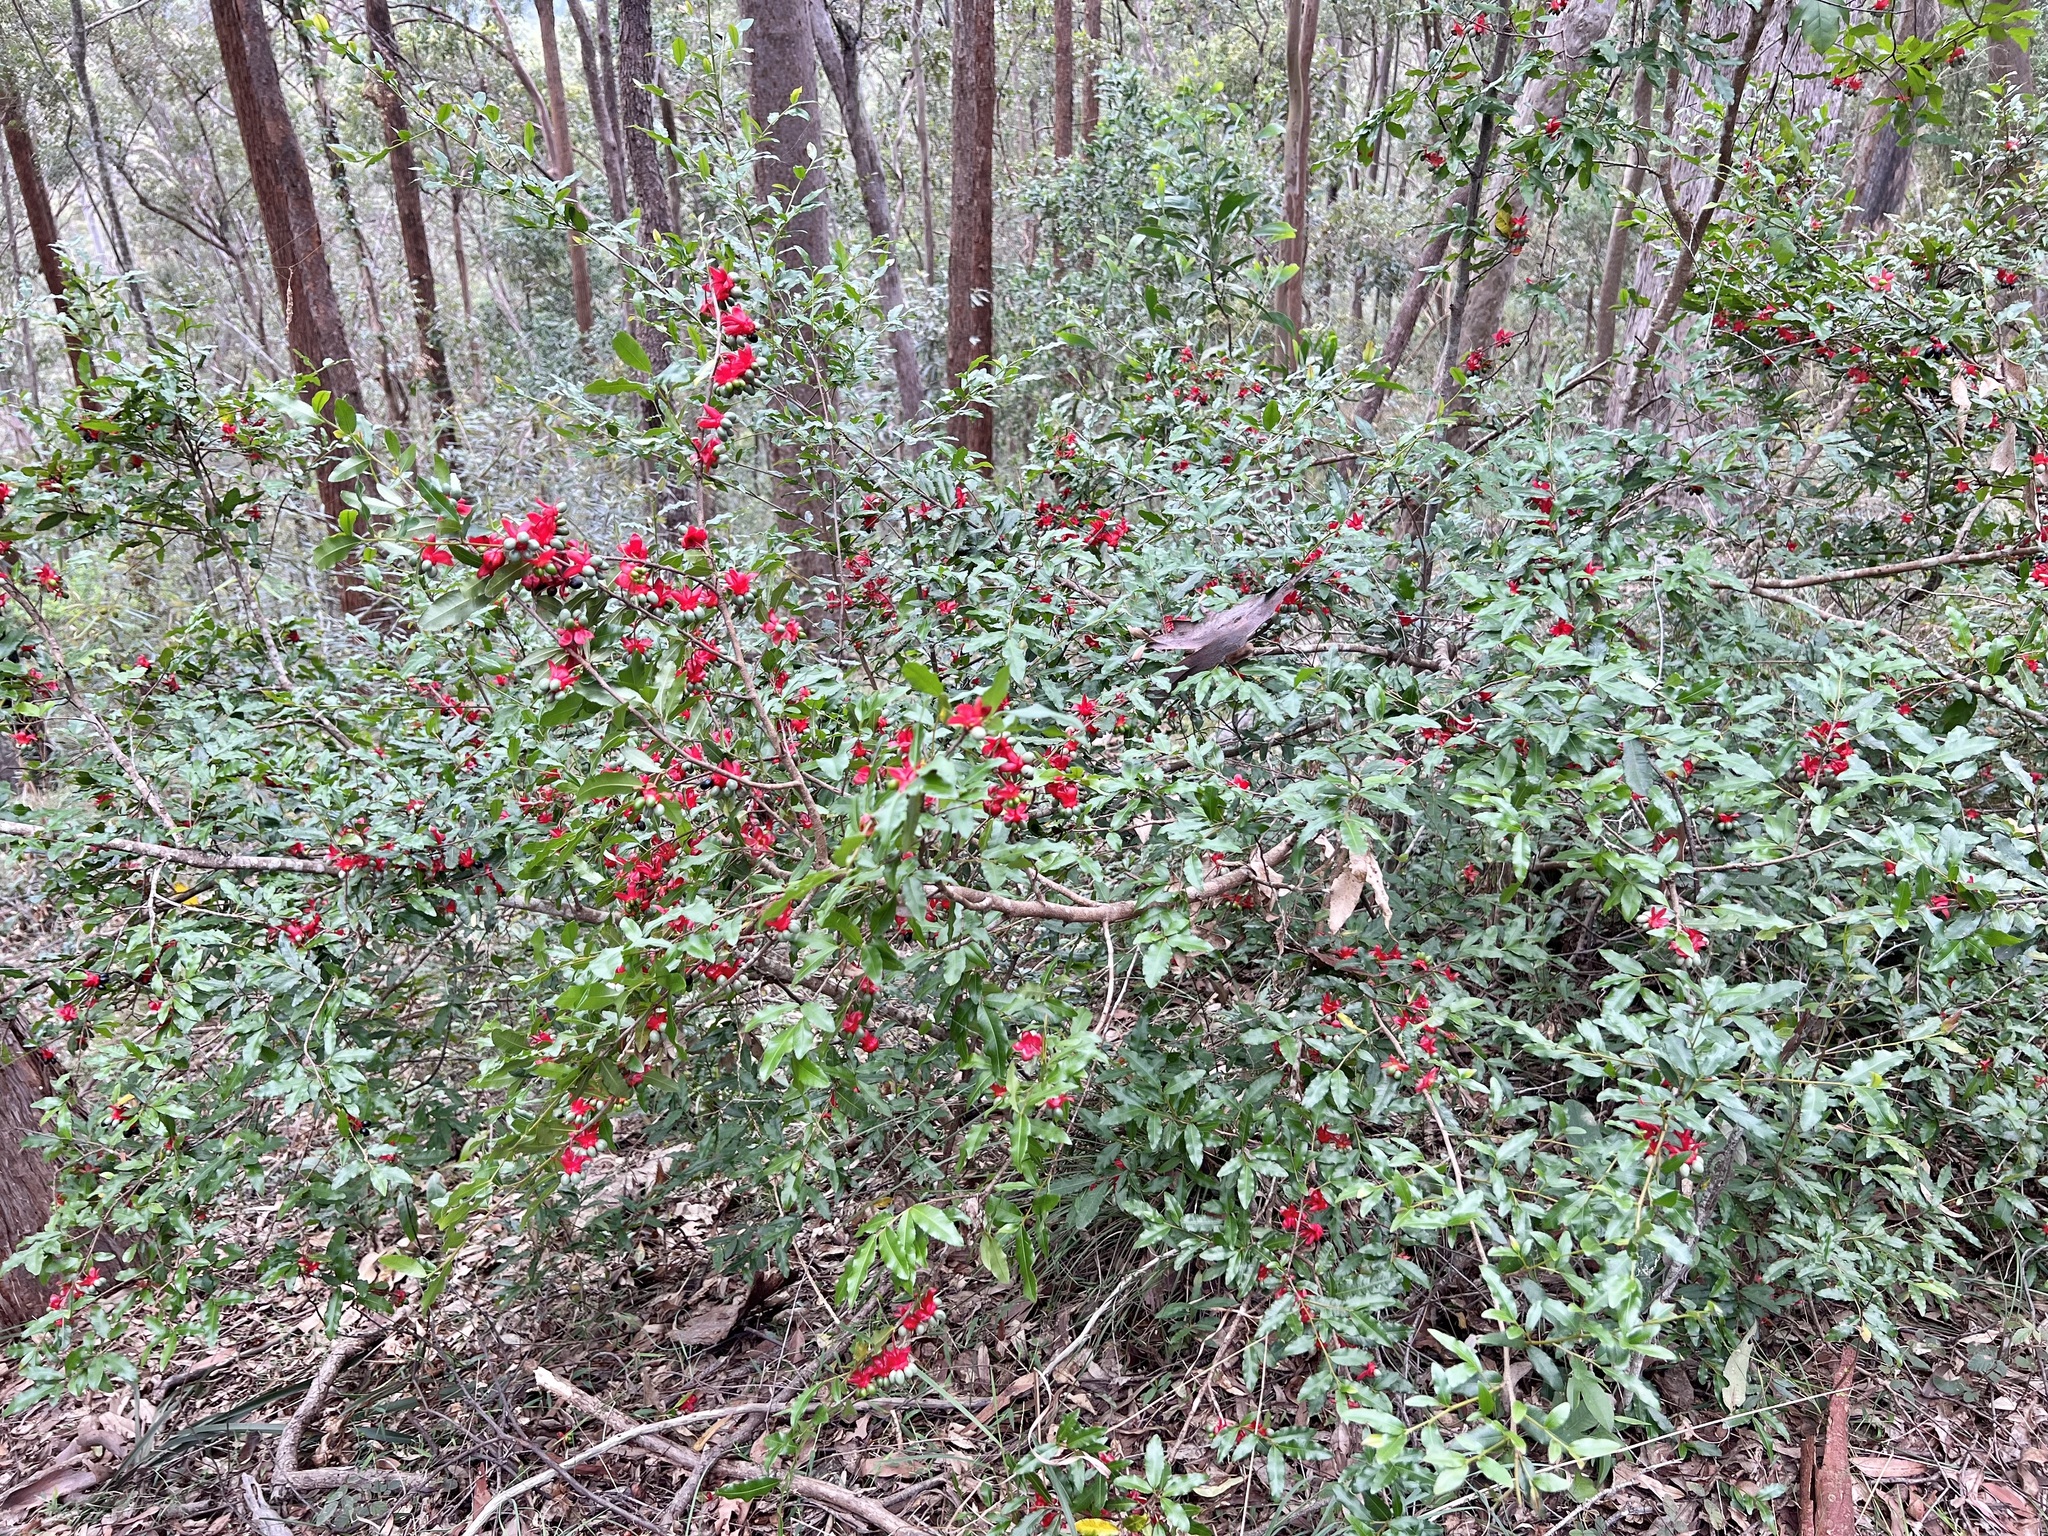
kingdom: Plantae
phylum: Tracheophyta
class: Magnoliopsida
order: Malpighiales
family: Ochnaceae
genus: Ochna
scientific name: Ochna serrulata
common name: Mickey mouse plant
